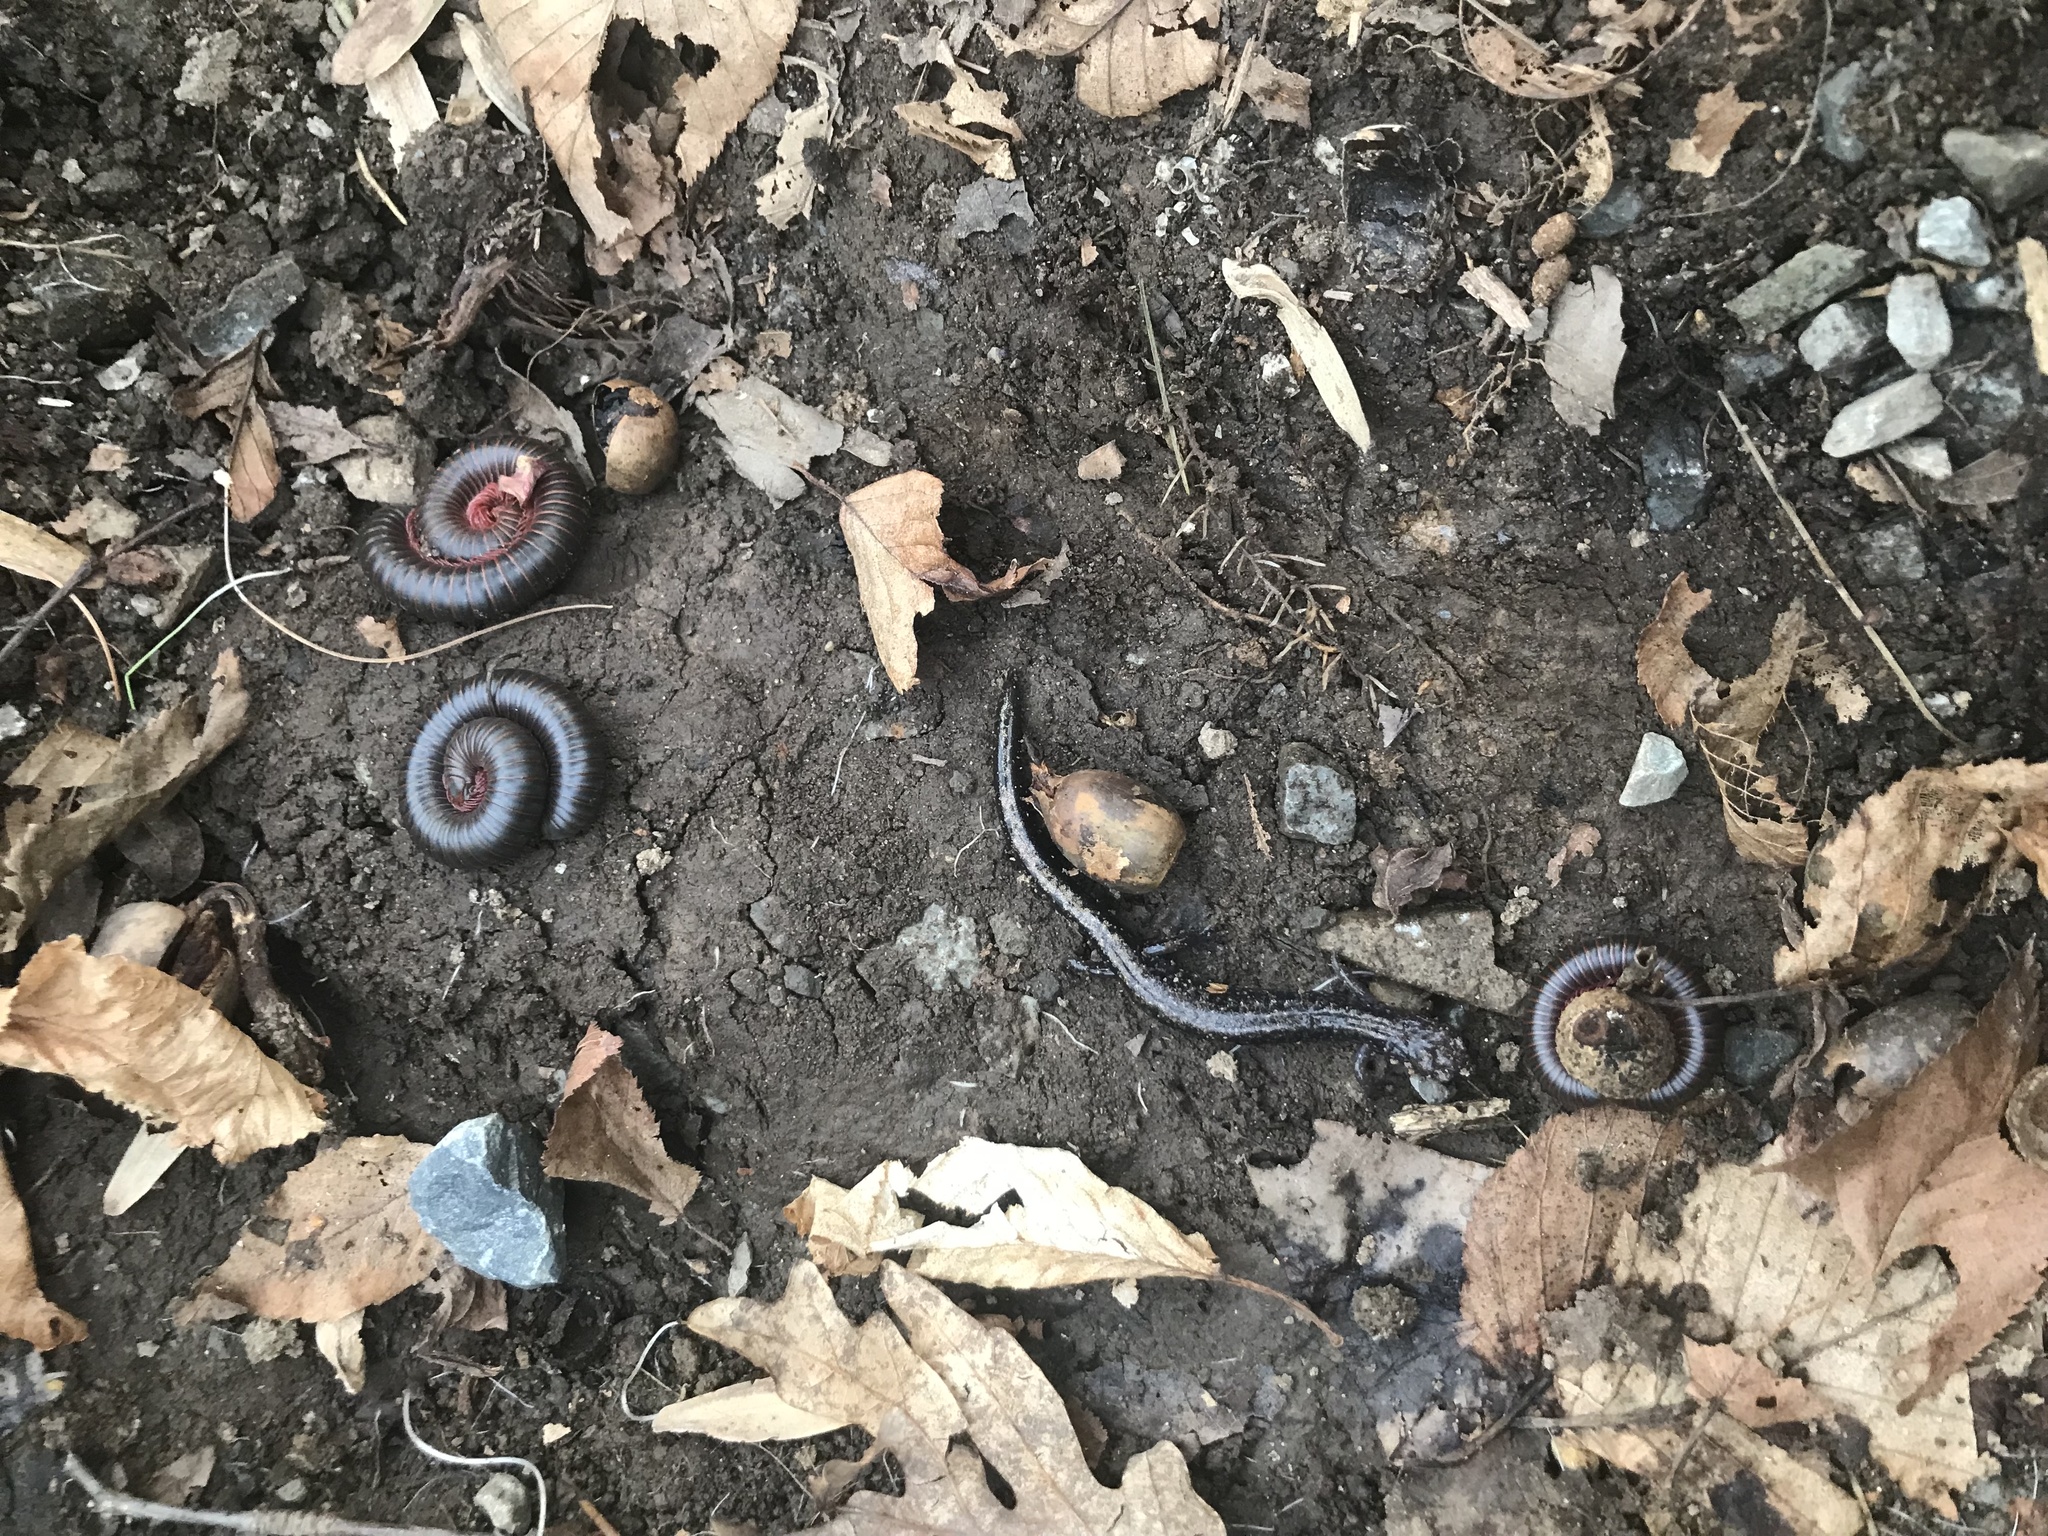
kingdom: Animalia
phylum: Chordata
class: Amphibia
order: Caudata
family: Plethodontidae
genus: Plethodon
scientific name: Plethodon hubrichti
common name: Peaks of otter salamander
